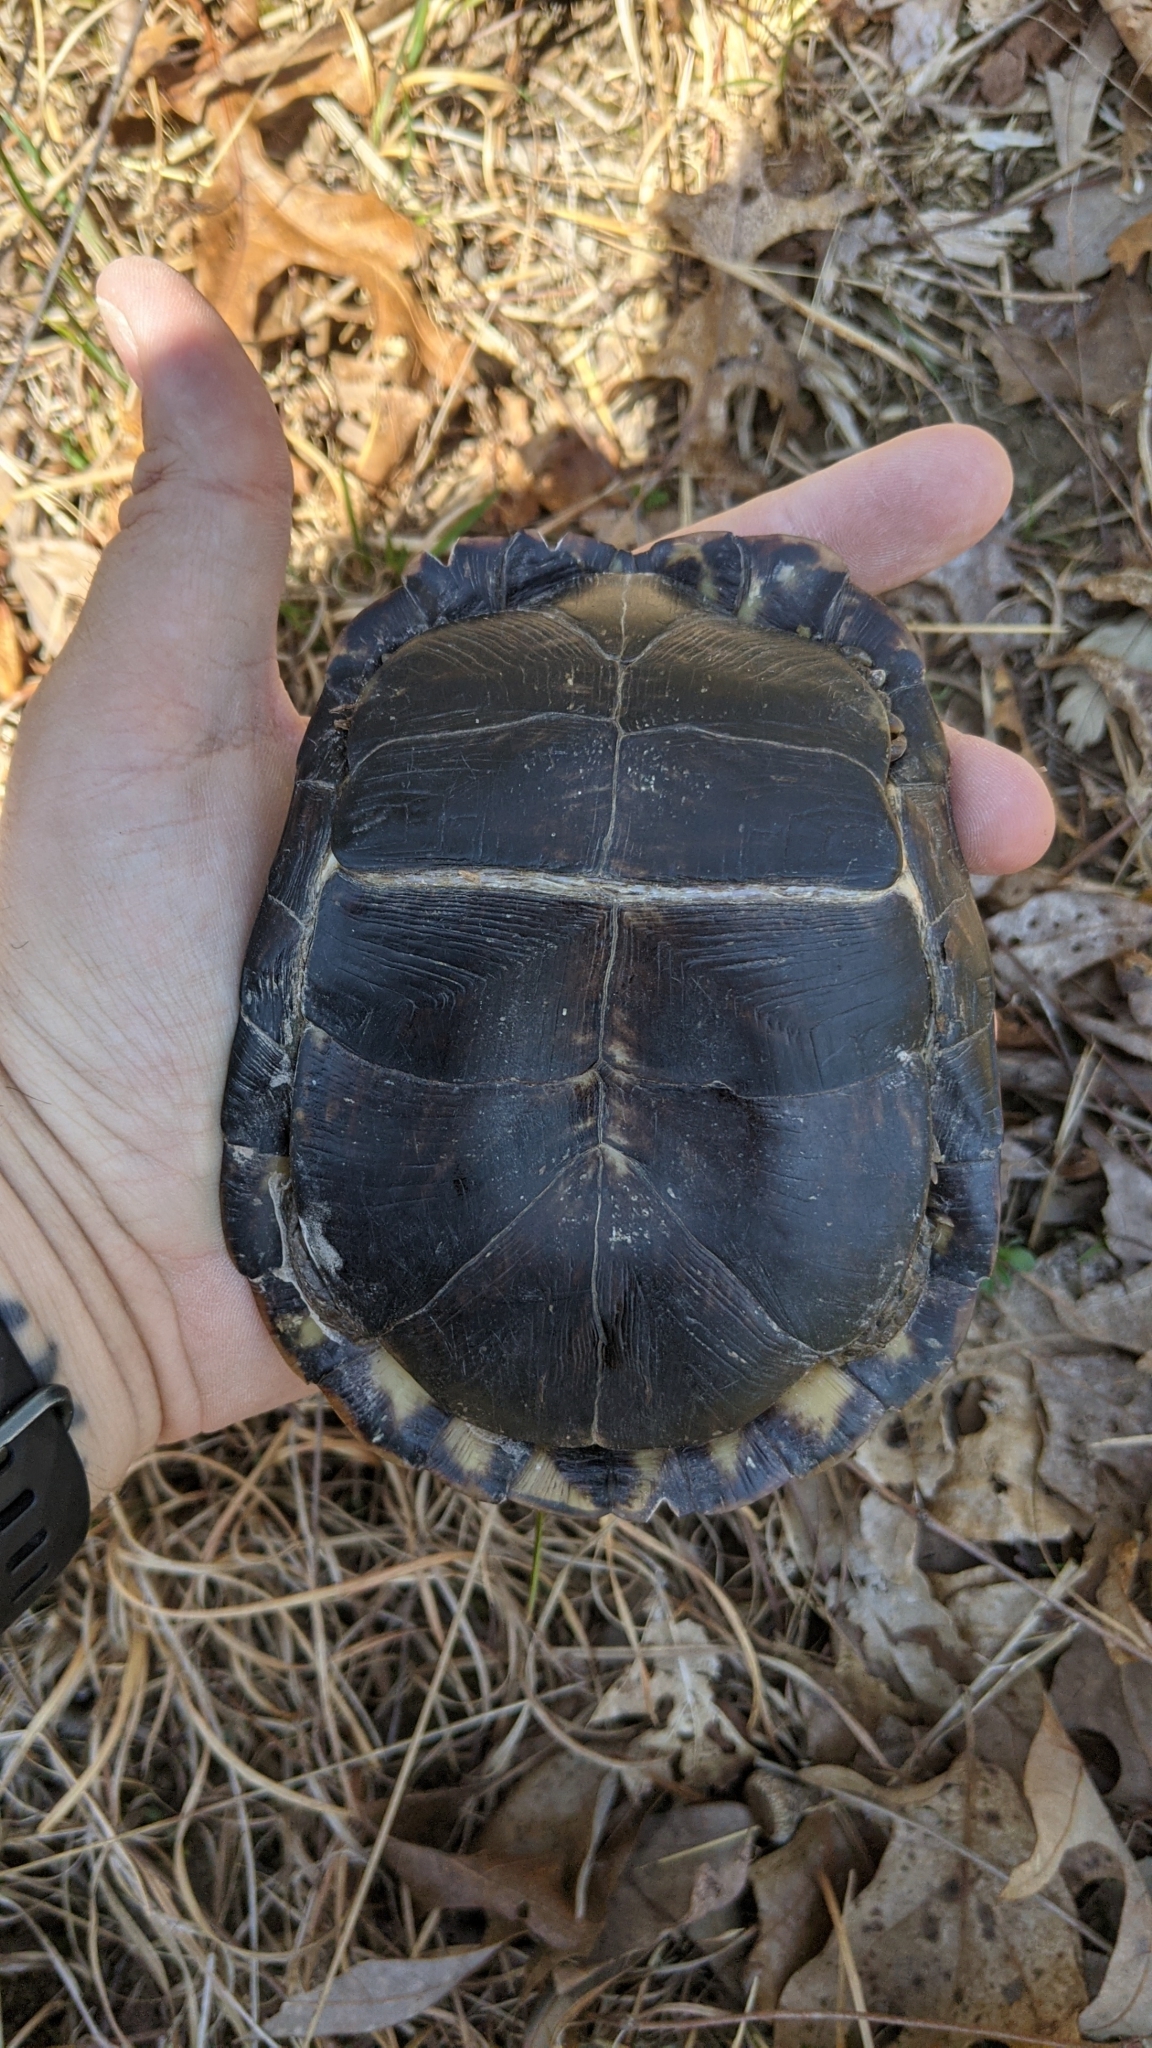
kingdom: Animalia
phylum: Chordata
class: Testudines
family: Emydidae
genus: Terrapene
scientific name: Terrapene carolina
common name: Common box turtle
